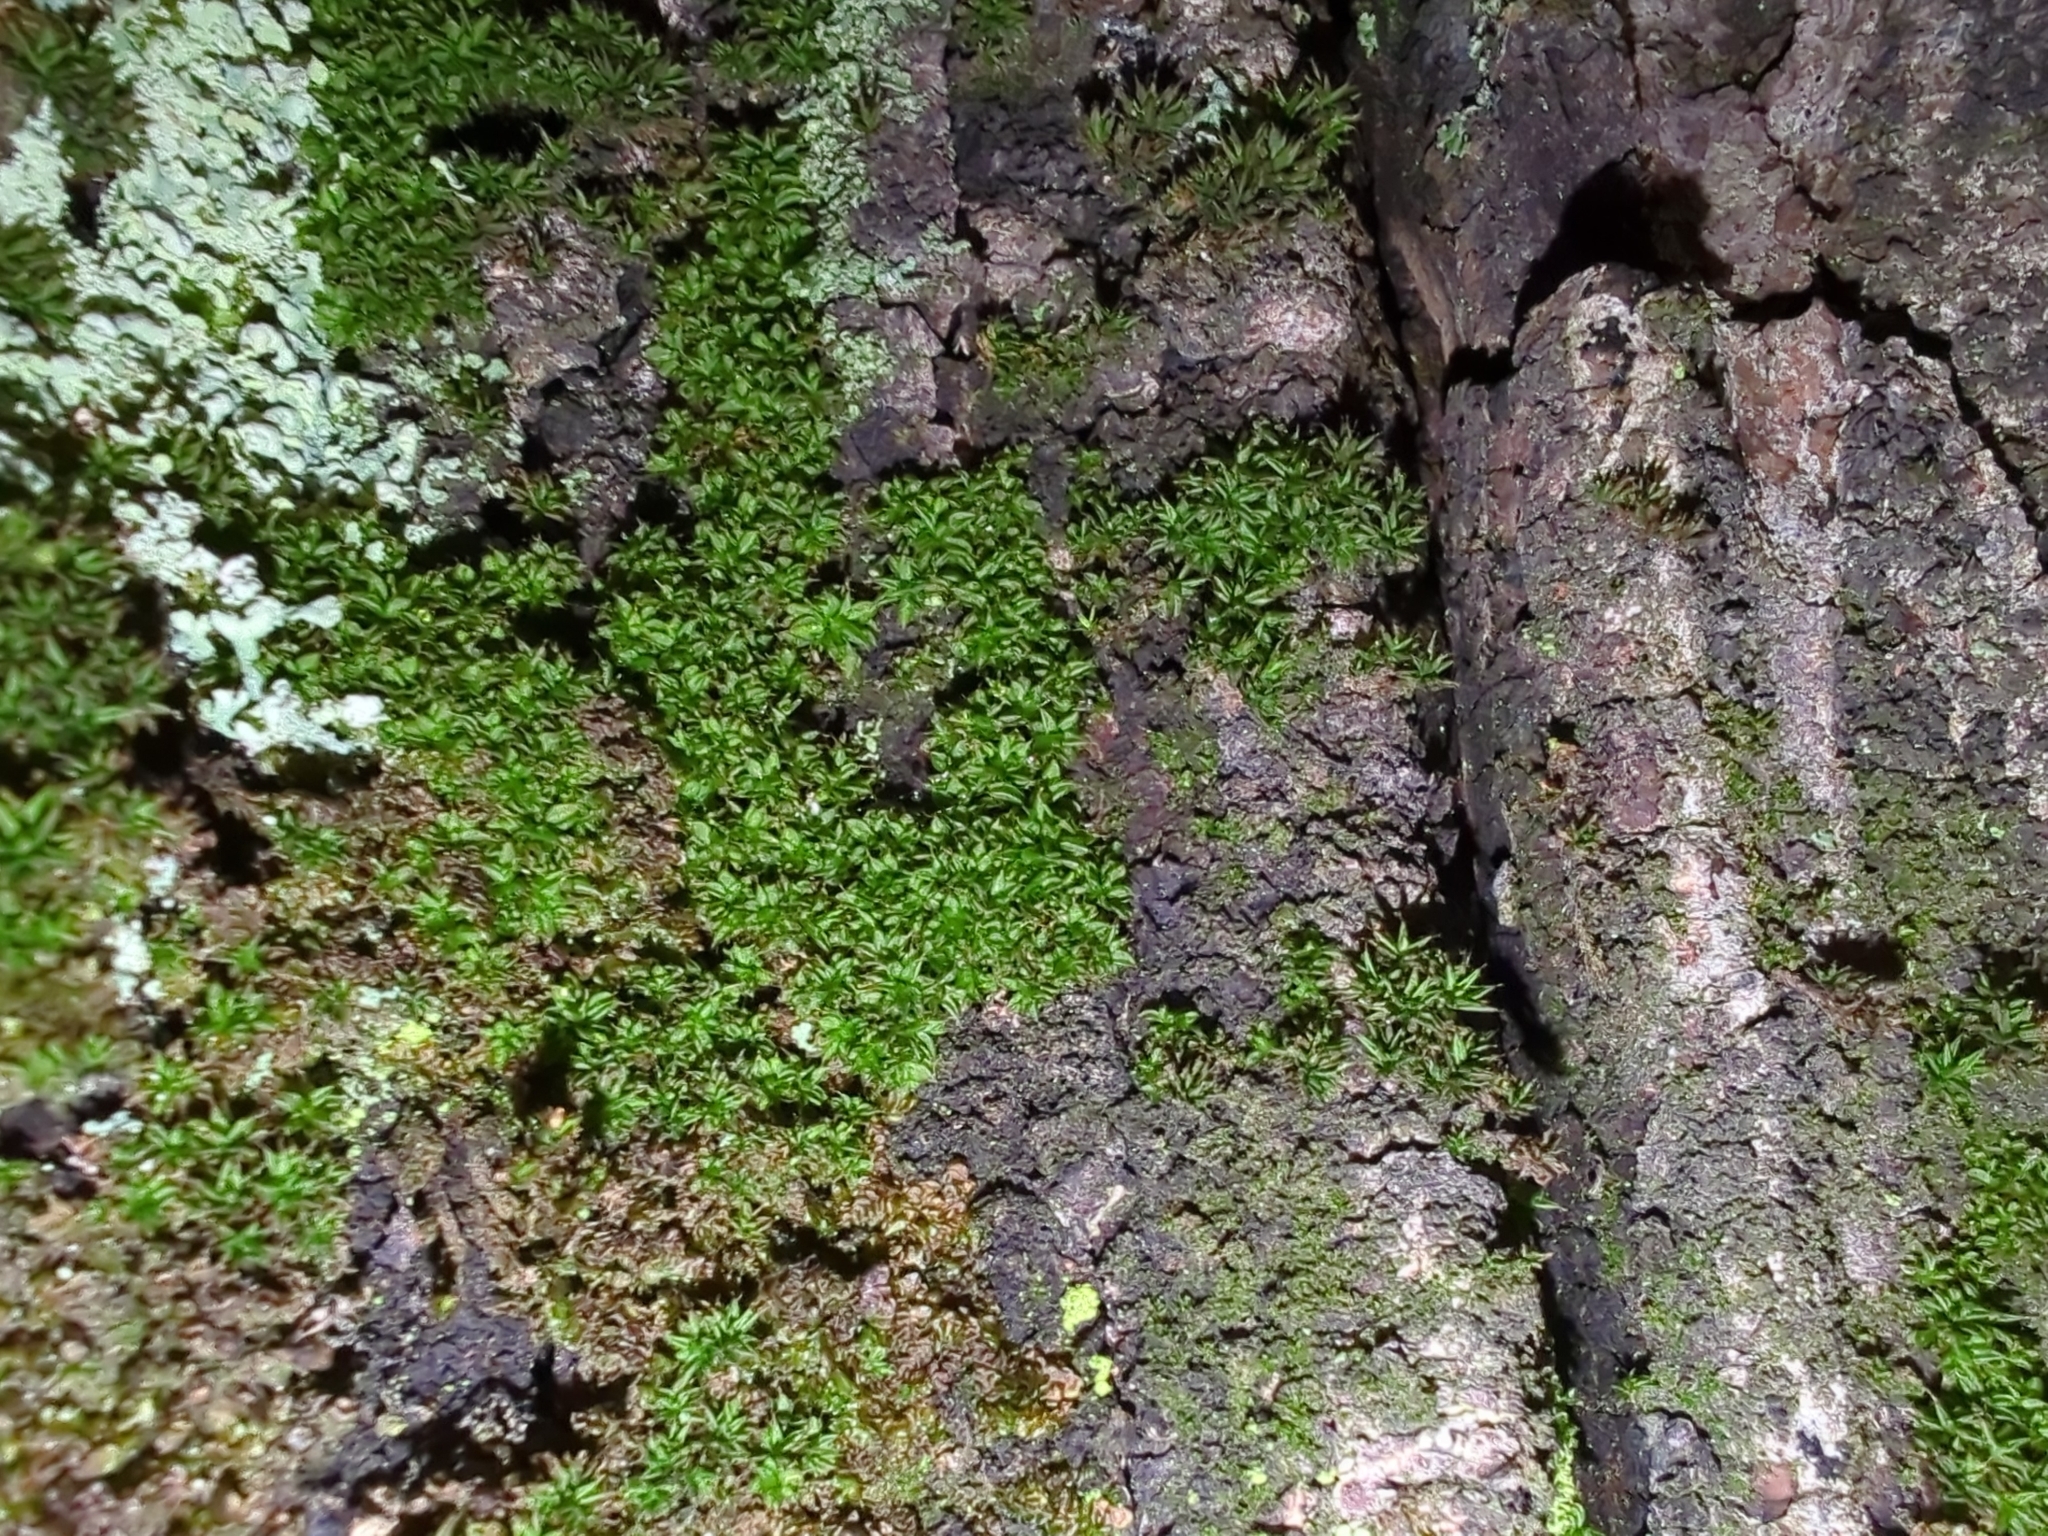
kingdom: Plantae
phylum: Bryophyta
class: Bryopsida
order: Pottiales
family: Pottiaceae
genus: Syntrichia
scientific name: Syntrichia papillosa
